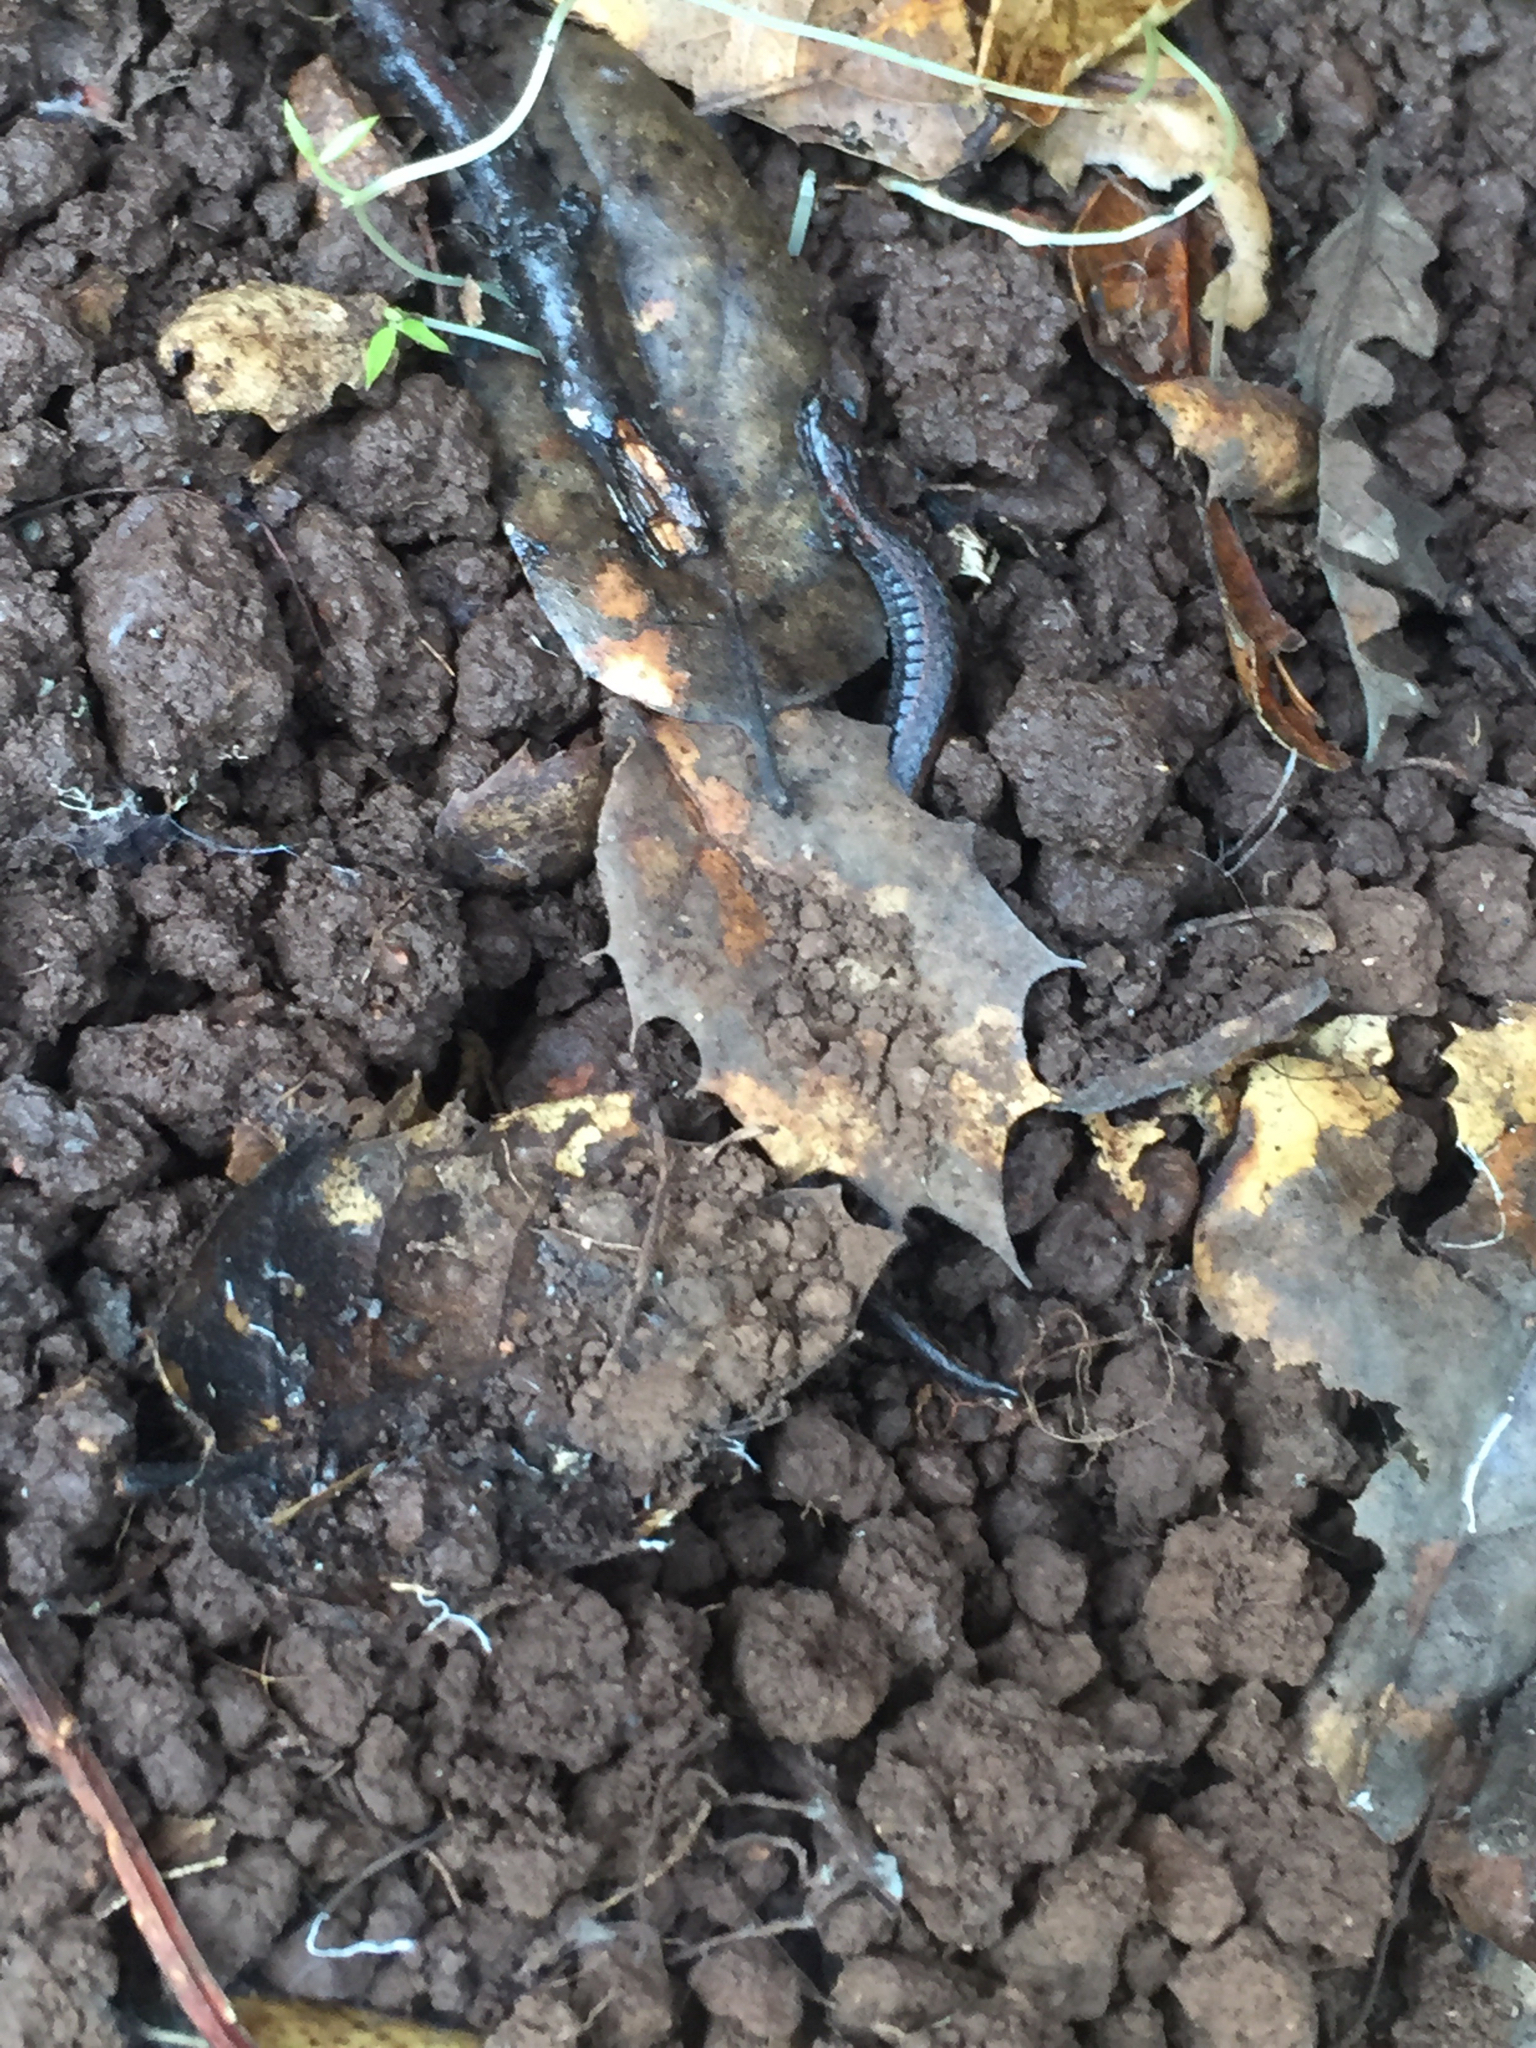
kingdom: Animalia
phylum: Chordata
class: Amphibia
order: Caudata
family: Plethodontidae
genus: Batrachoseps
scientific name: Batrachoseps attenuatus
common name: California slender salamander
